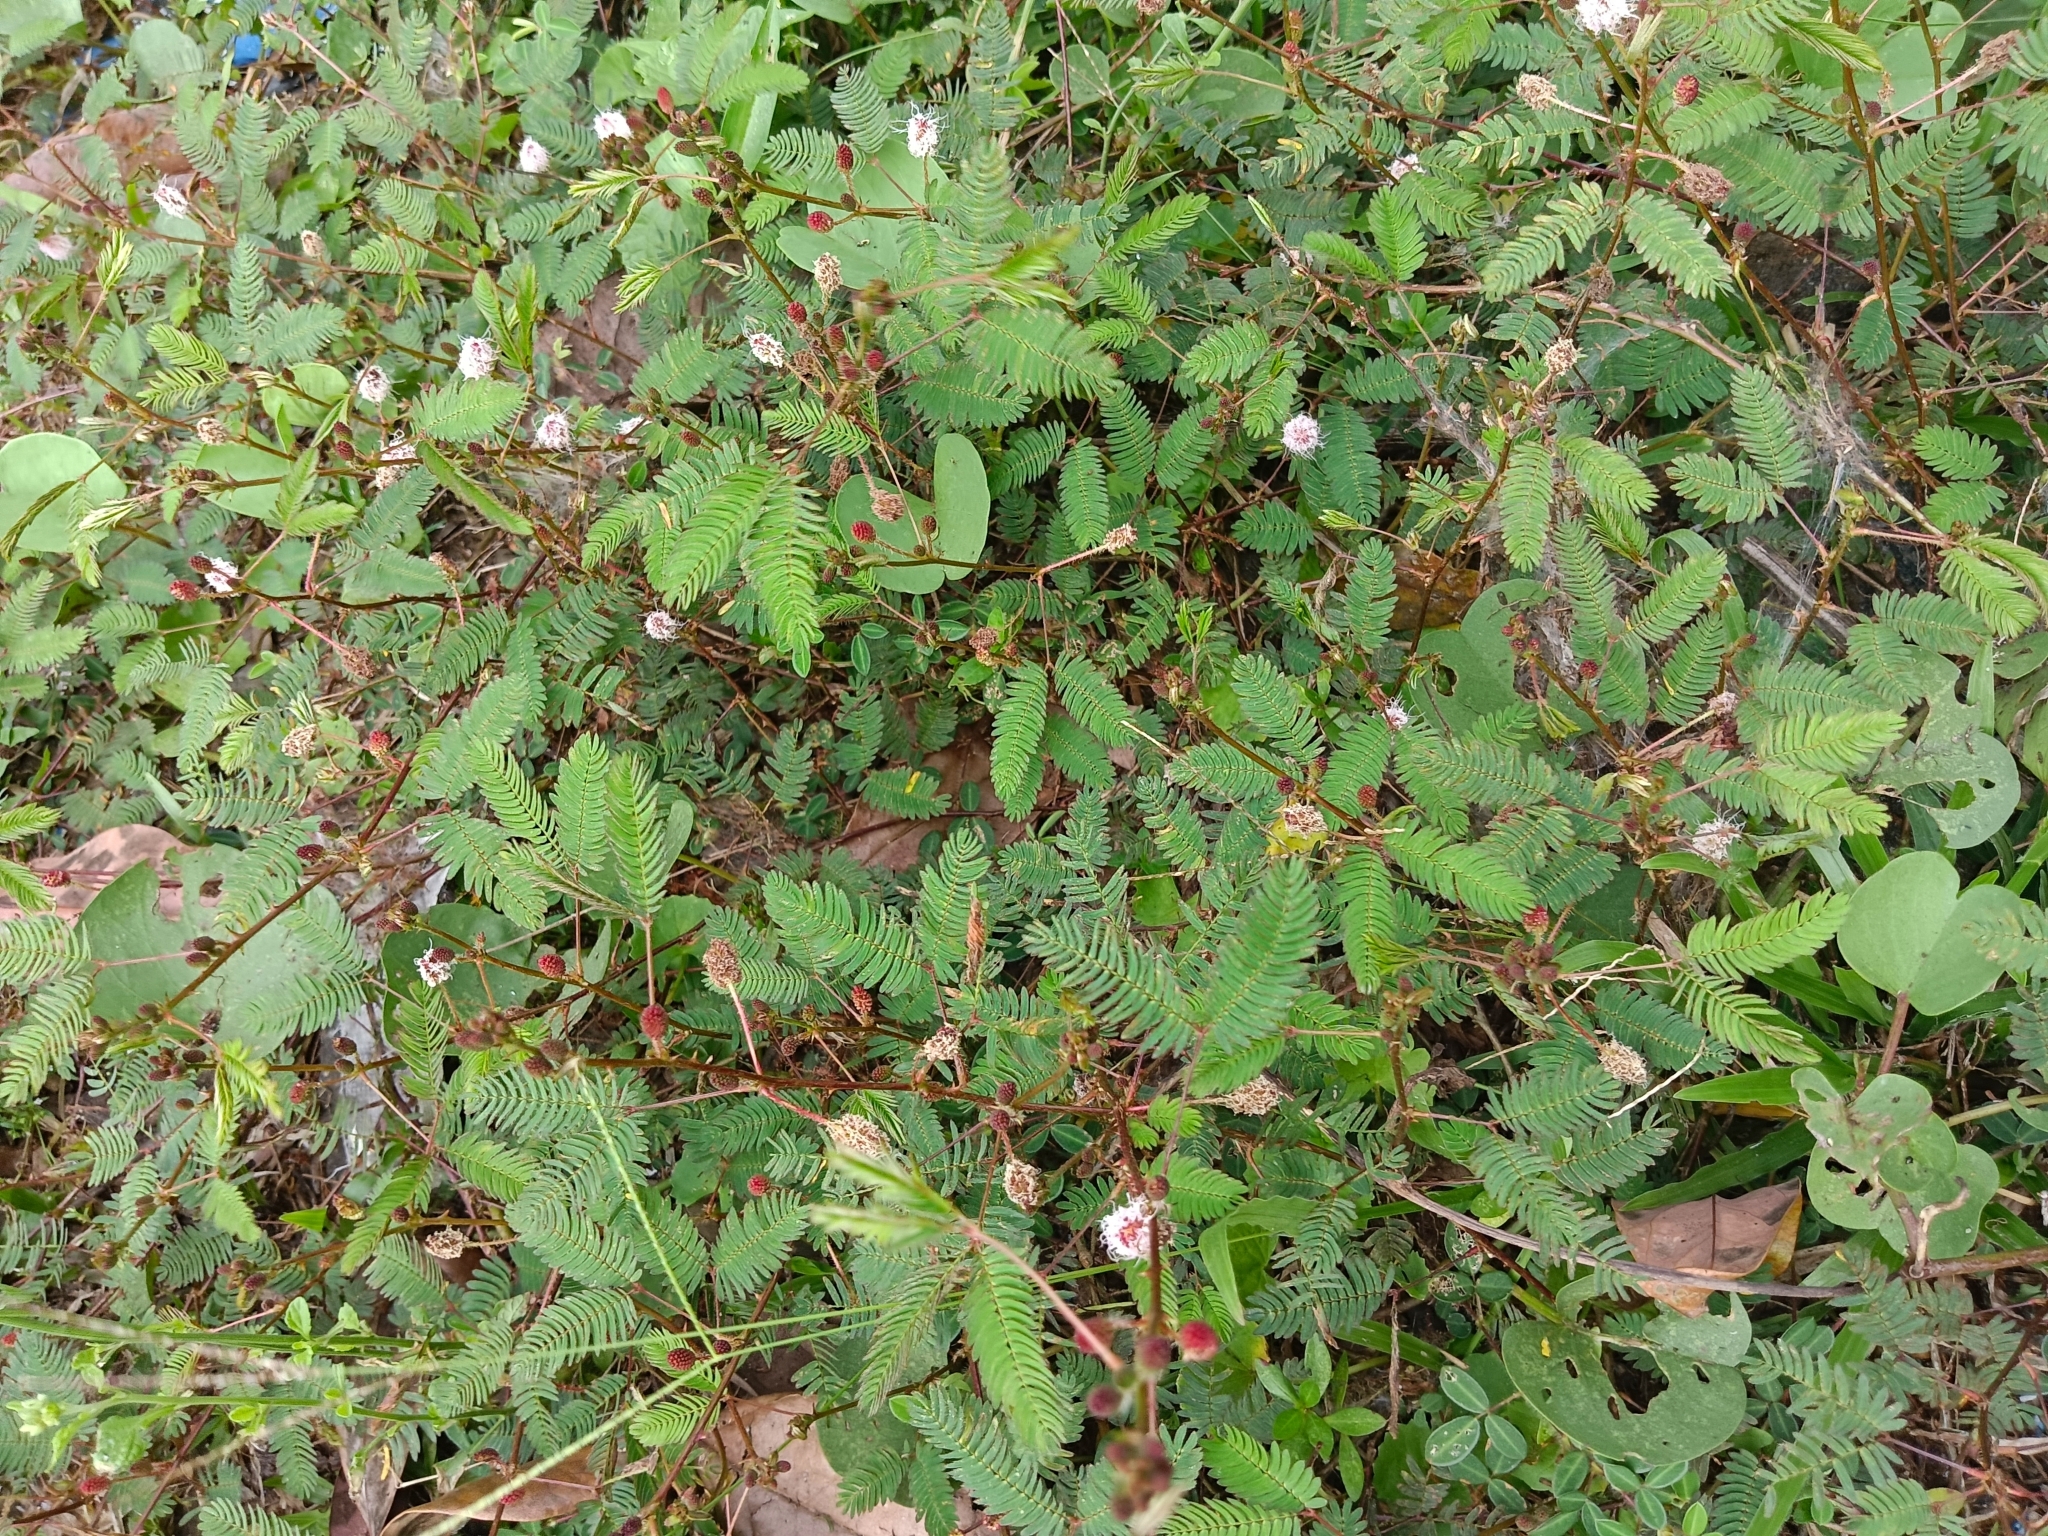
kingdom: Plantae
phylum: Tracheophyta
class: Magnoliopsida
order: Fabales
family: Fabaceae
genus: Mimosa
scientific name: Mimosa pudica
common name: Sensitive plant
